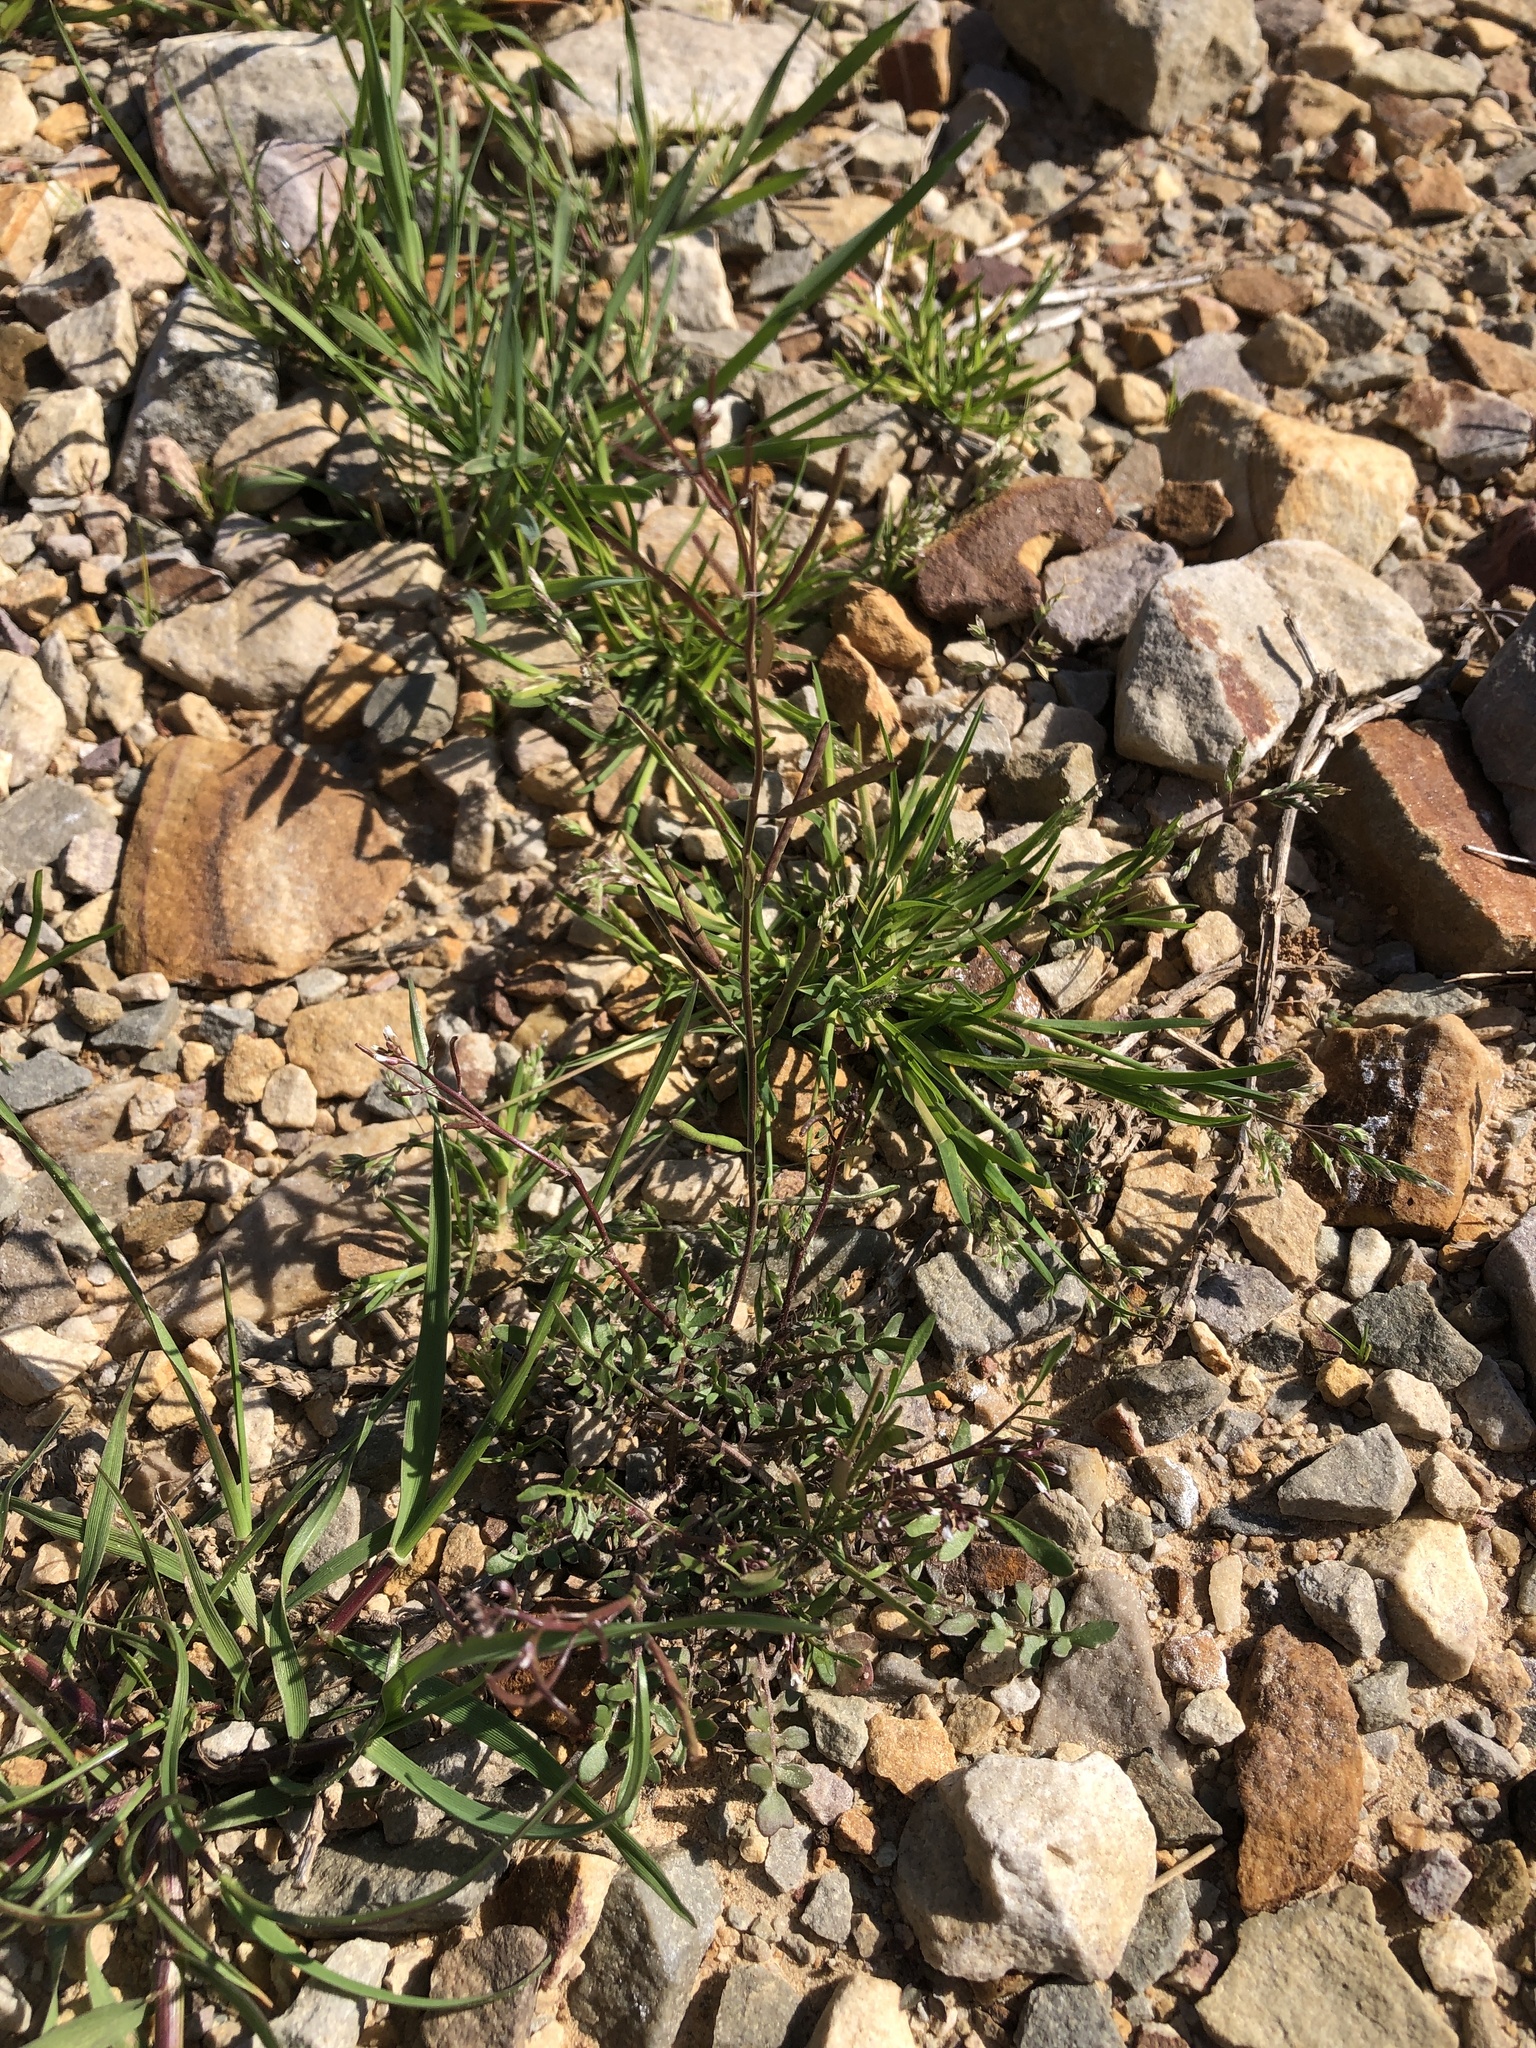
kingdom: Plantae
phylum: Tracheophyta
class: Magnoliopsida
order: Brassicales
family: Brassicaceae
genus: Cardamine
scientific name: Cardamine hirsuta
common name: Hairy bittercress
